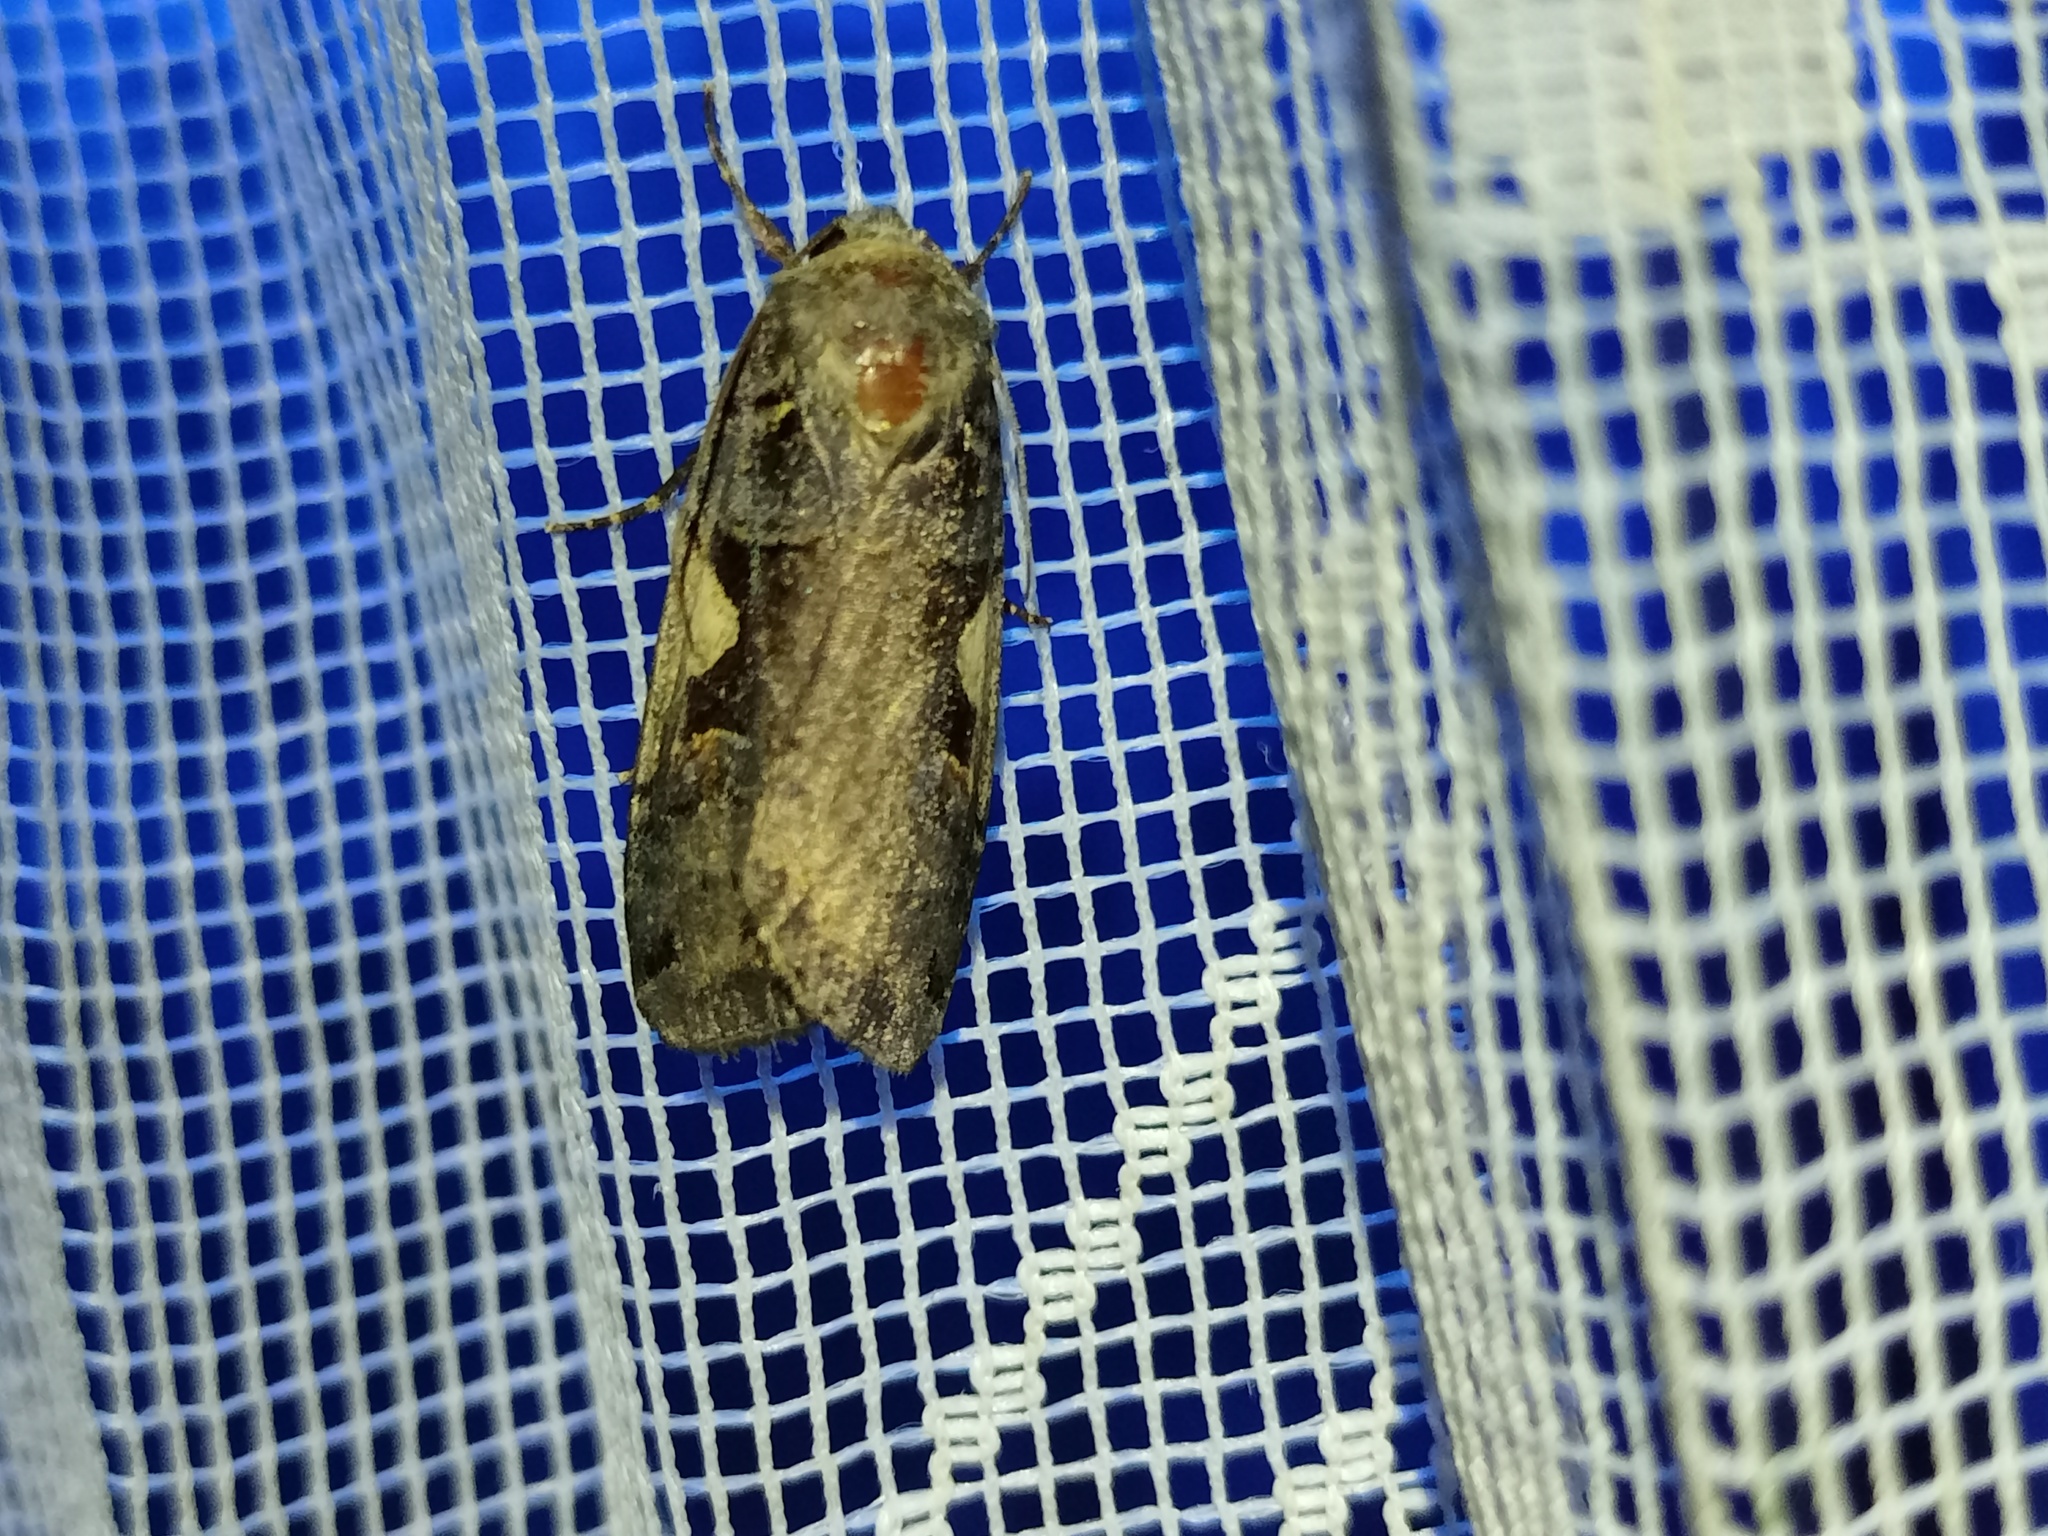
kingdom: Animalia
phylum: Arthropoda
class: Insecta
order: Lepidoptera
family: Noctuidae
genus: Xestia
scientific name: Xestia c-nigrum
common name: Setaceous hebrew character
